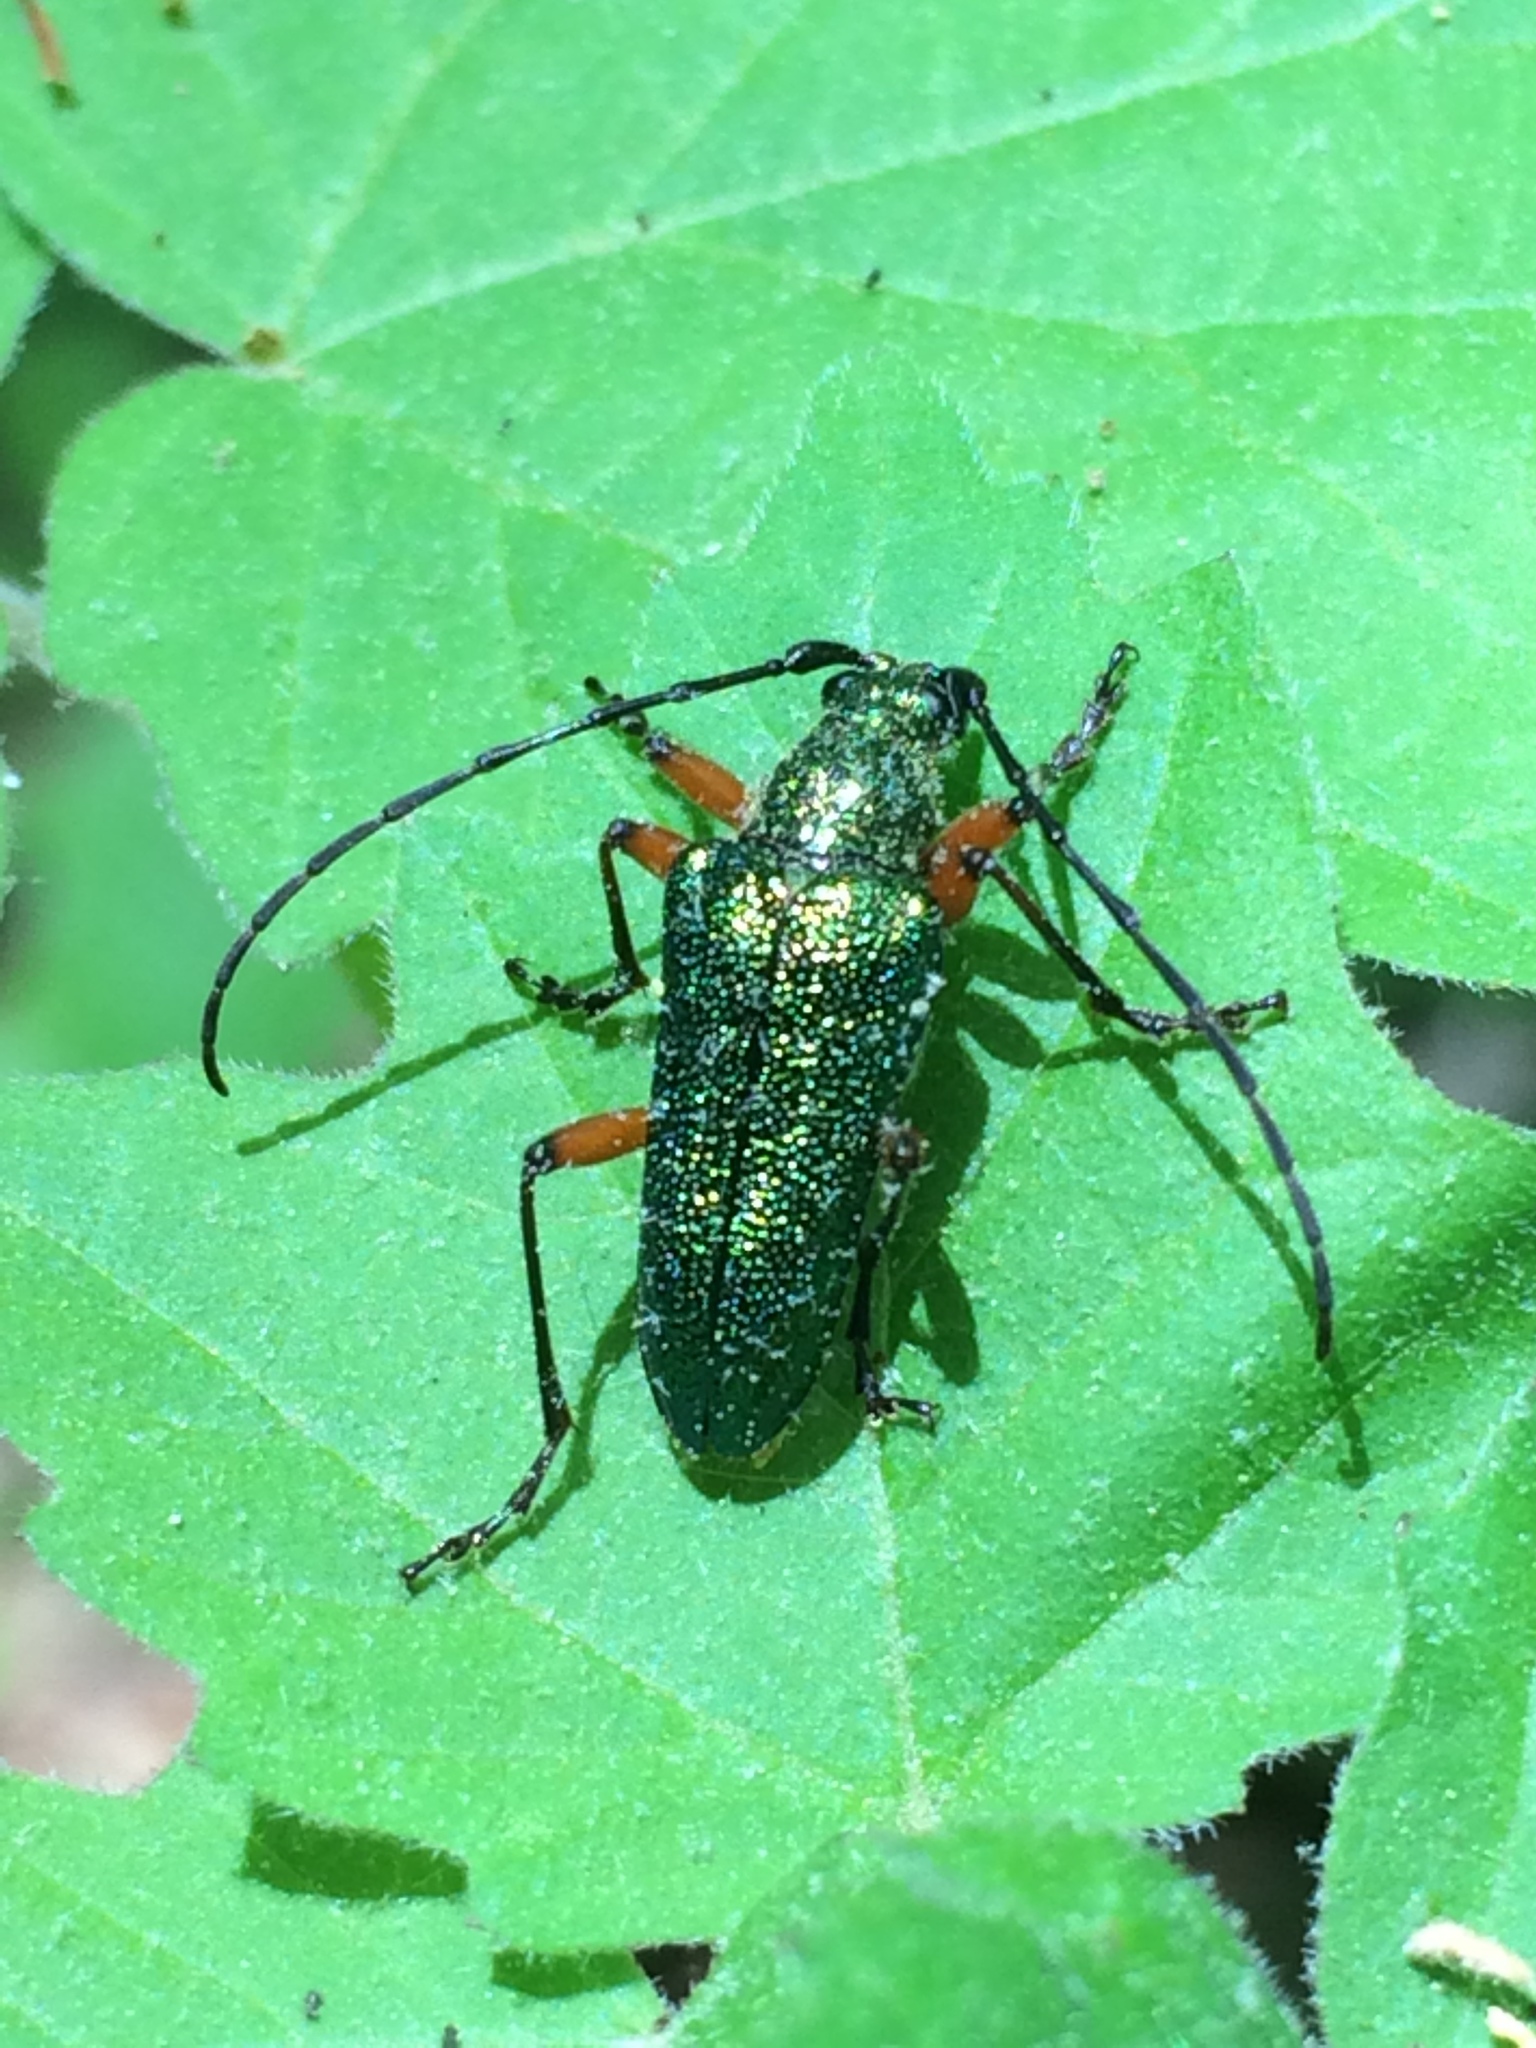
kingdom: Animalia
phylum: Arthropoda
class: Insecta
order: Coleoptera
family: Cerambycidae
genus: Anthophylax
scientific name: Anthophylax cyaneus
